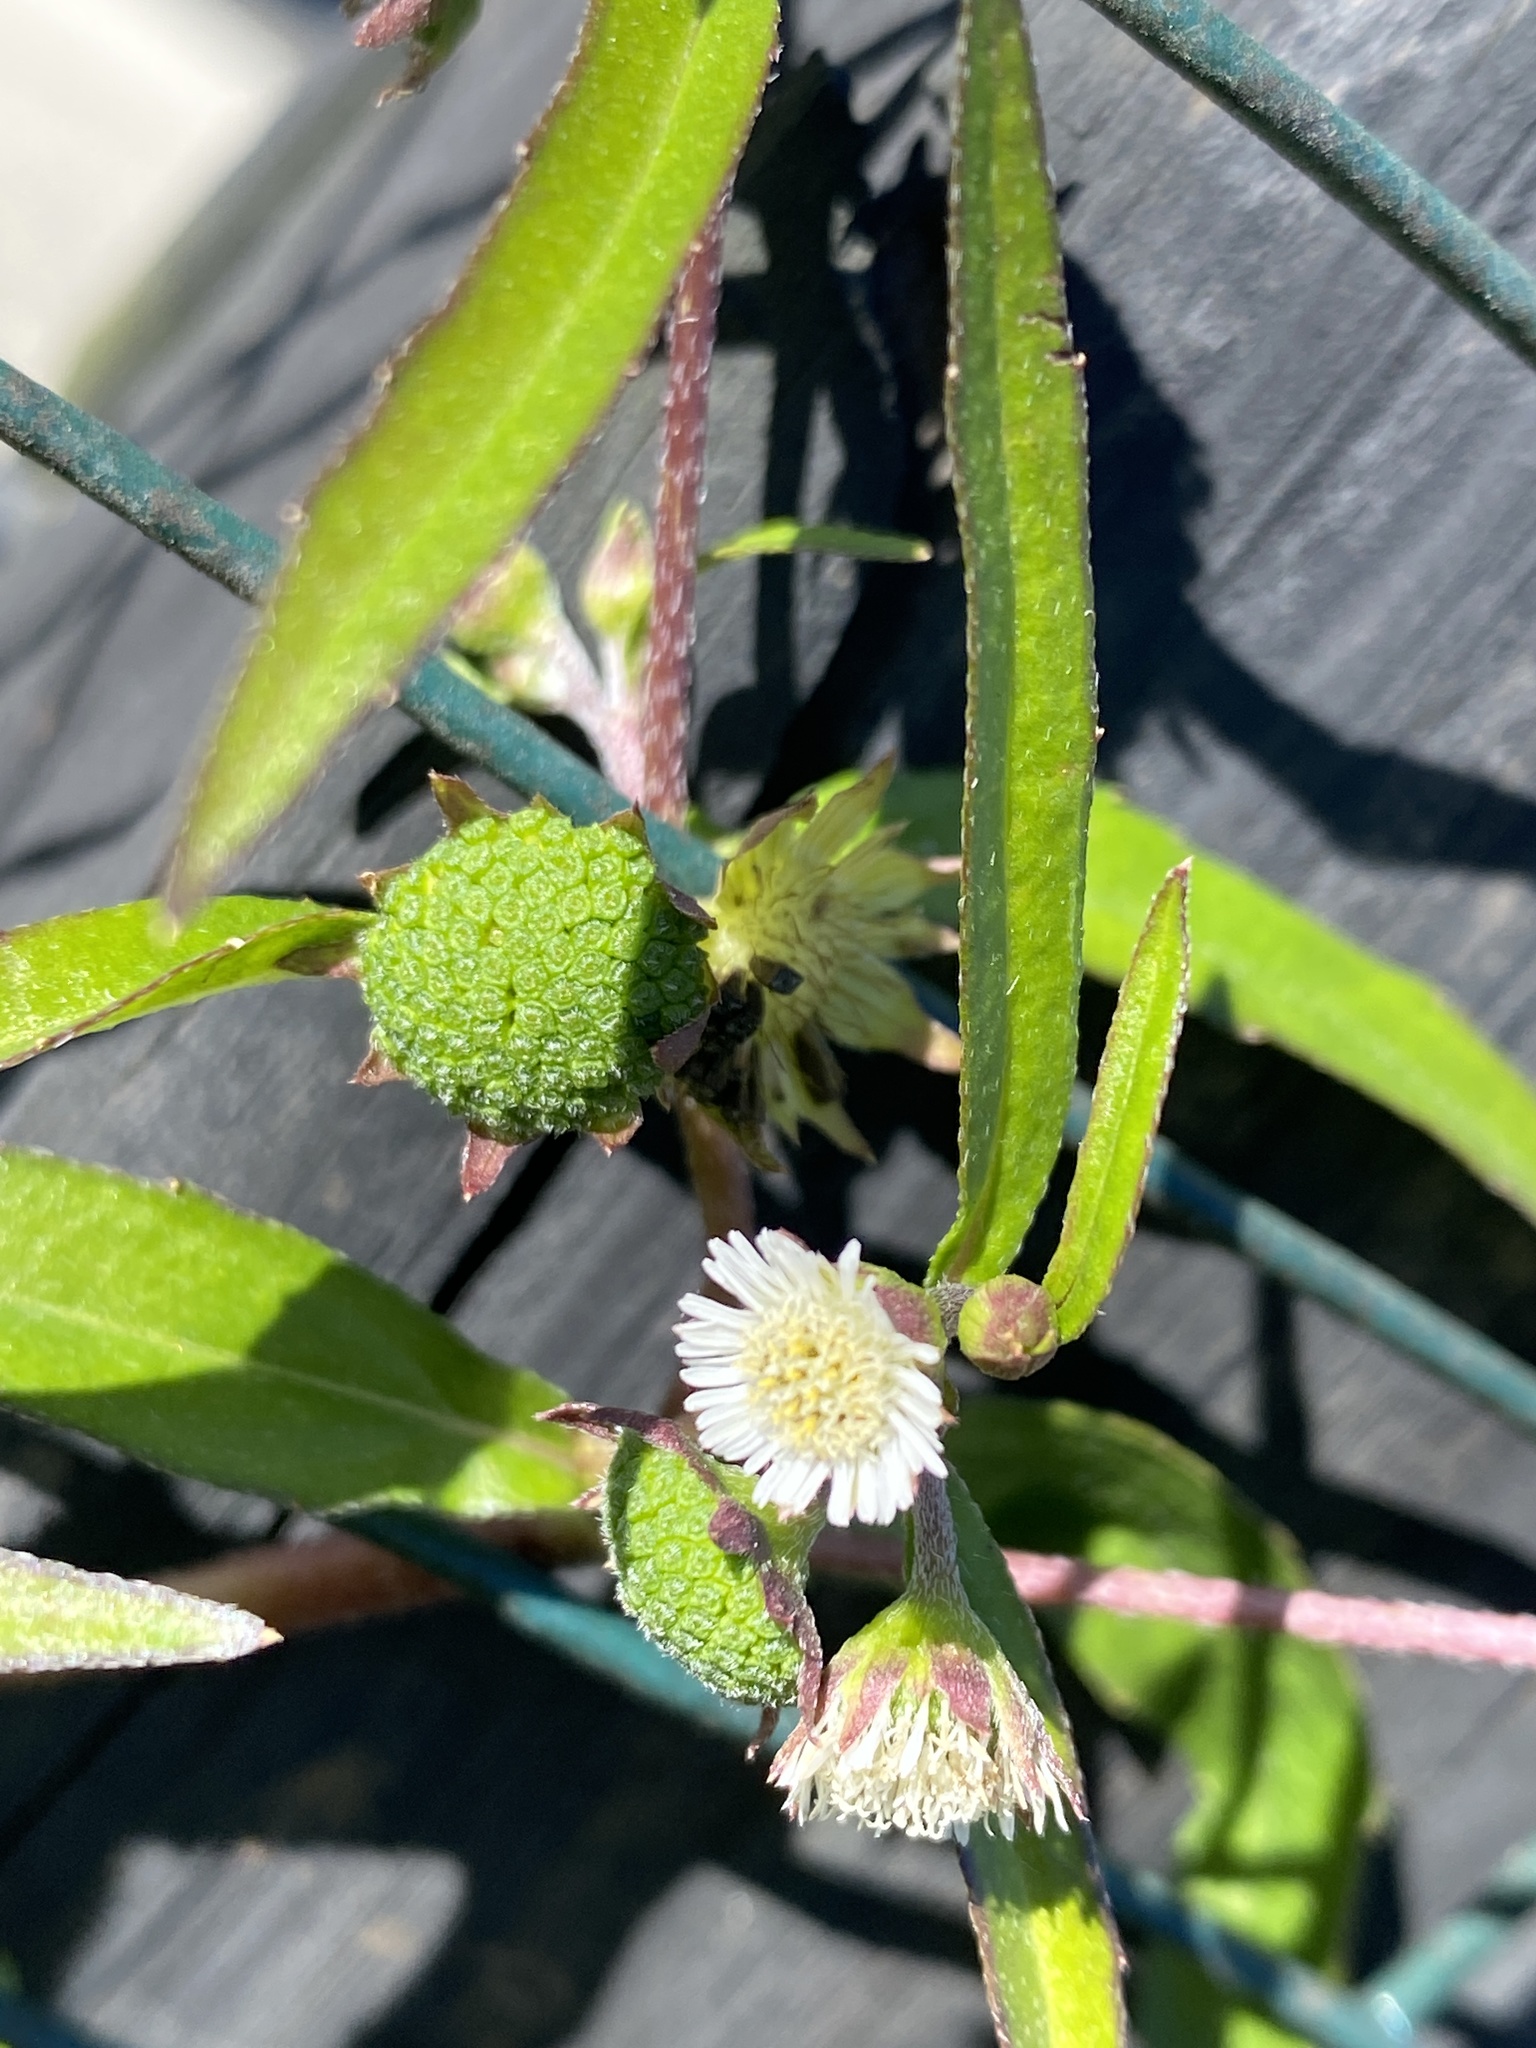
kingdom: Plantae
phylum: Tracheophyta
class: Magnoliopsida
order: Asterales
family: Asteraceae
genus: Eclipta
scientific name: Eclipta prostrata
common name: False daisy
